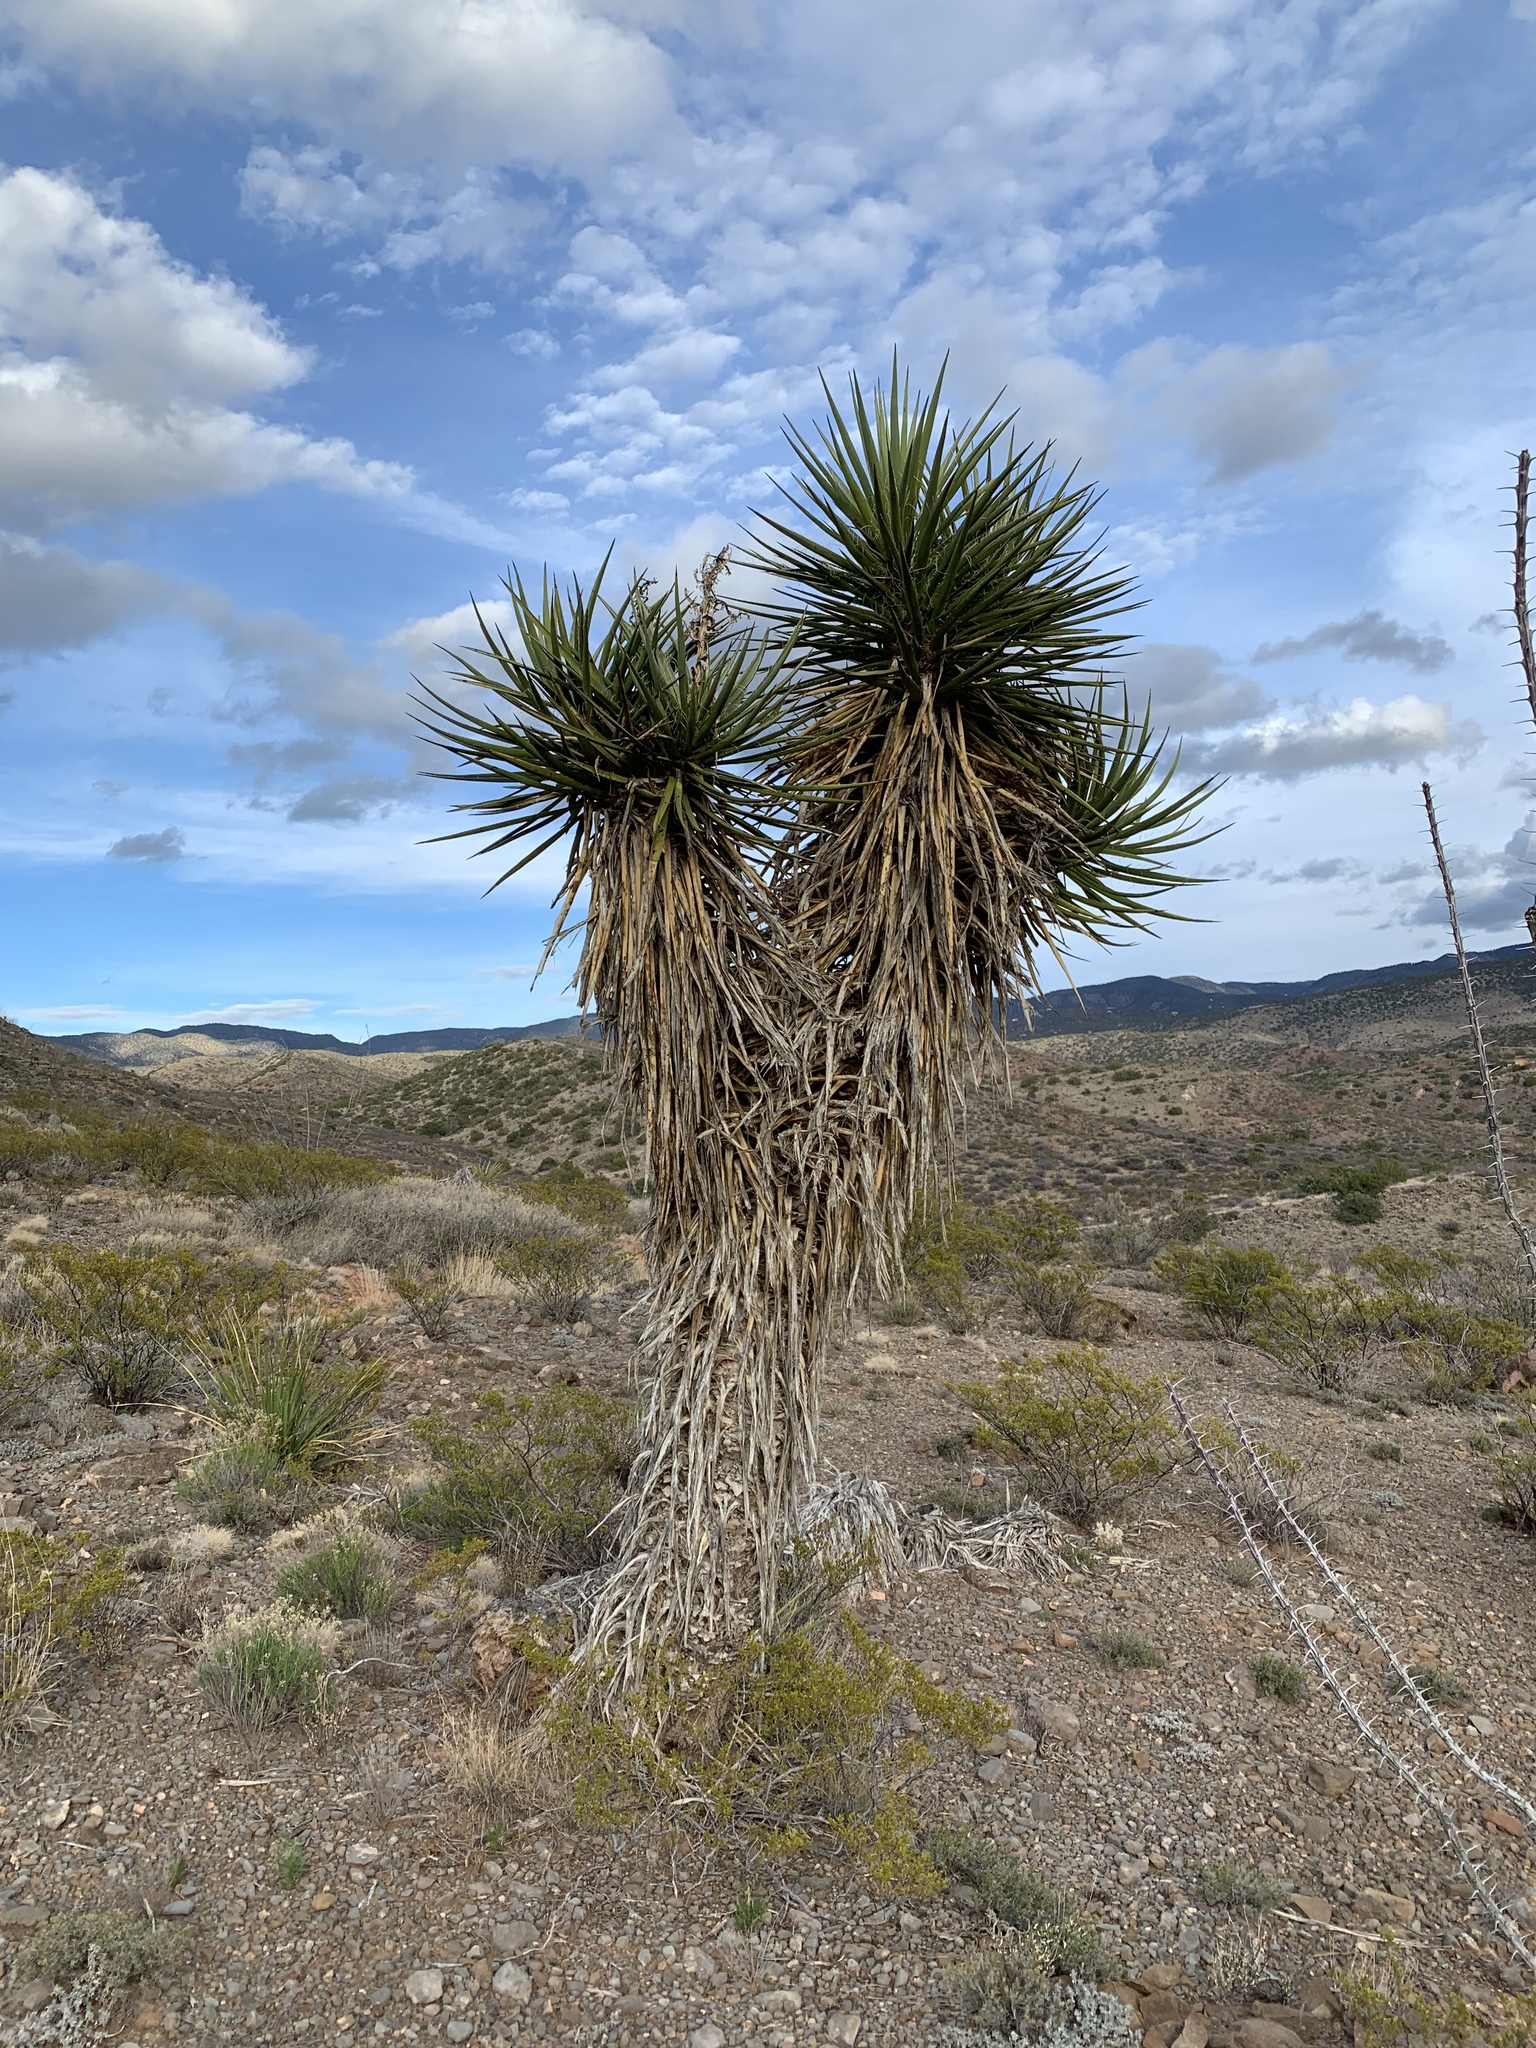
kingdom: Plantae
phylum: Tracheophyta
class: Liliopsida
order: Asparagales
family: Asparagaceae
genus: Yucca
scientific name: Yucca treculiana
